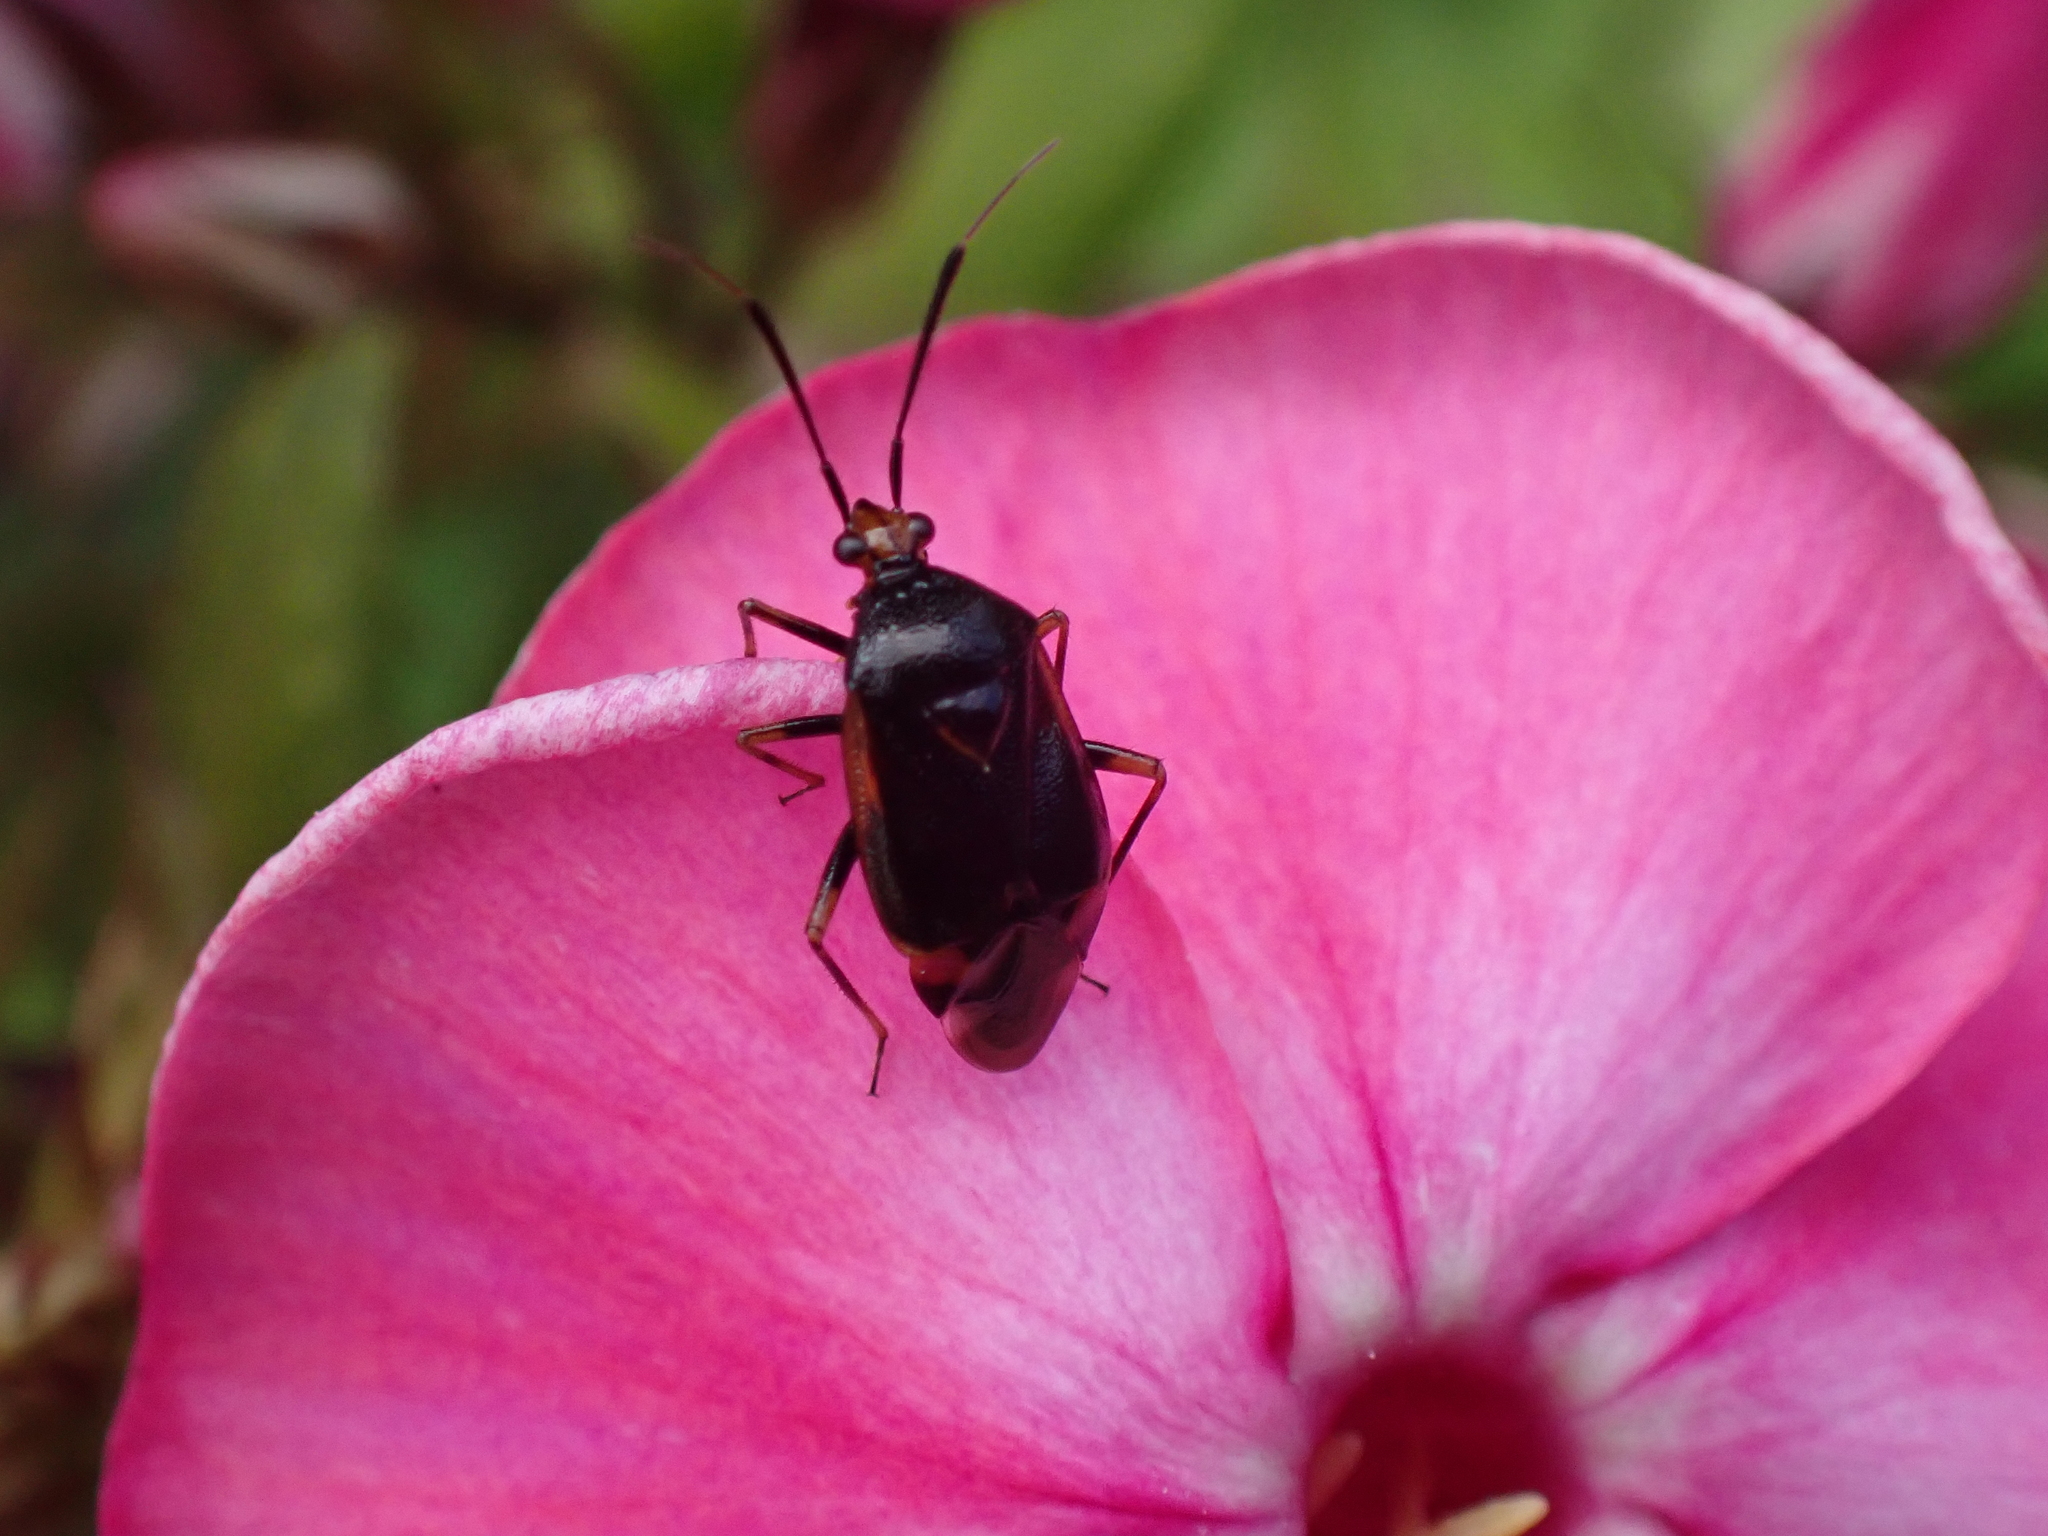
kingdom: Animalia
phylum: Arthropoda
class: Insecta
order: Hemiptera
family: Miridae
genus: Deraeocoris
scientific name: Deraeocoris ruber
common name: Plant bug
